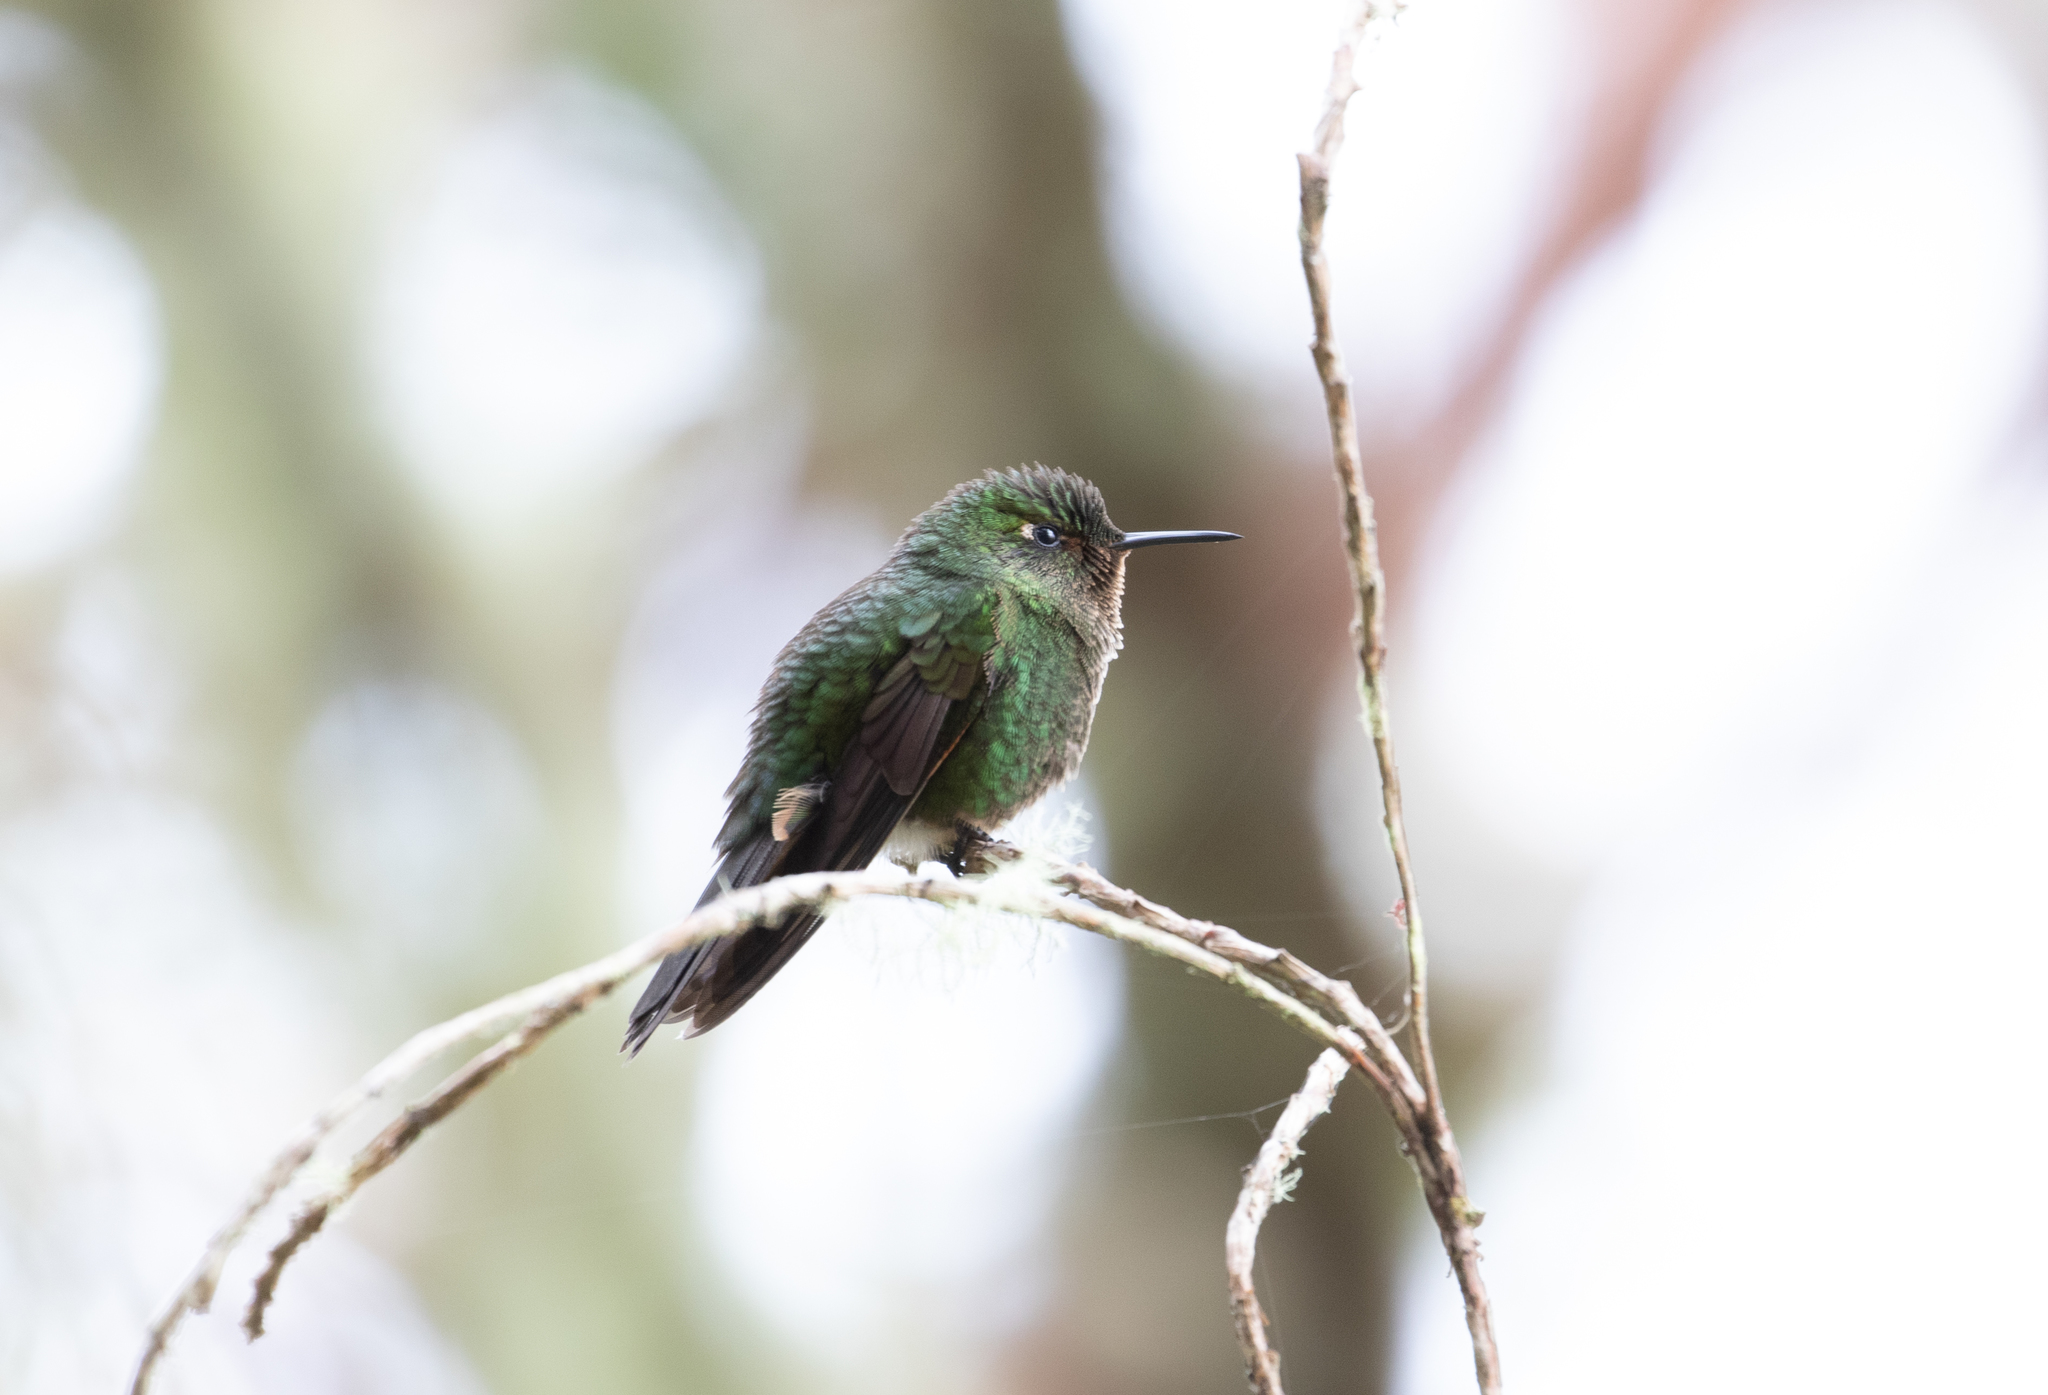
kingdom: Animalia
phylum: Chordata
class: Aves
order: Apodiformes
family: Trochilidae
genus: Metallura
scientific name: Metallura williami
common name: Viridian metaltail
